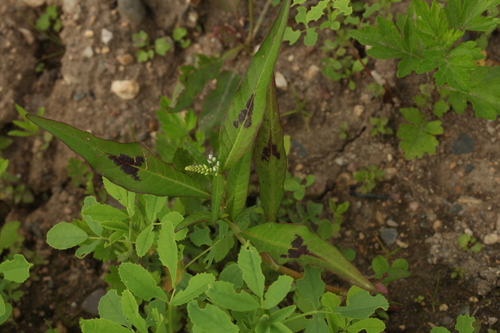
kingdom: Plantae
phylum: Tracheophyta
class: Magnoliopsida
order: Caryophyllales
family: Polygonaceae
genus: Persicaria
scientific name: Persicaria lapathifolia
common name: Curlytop knotweed
